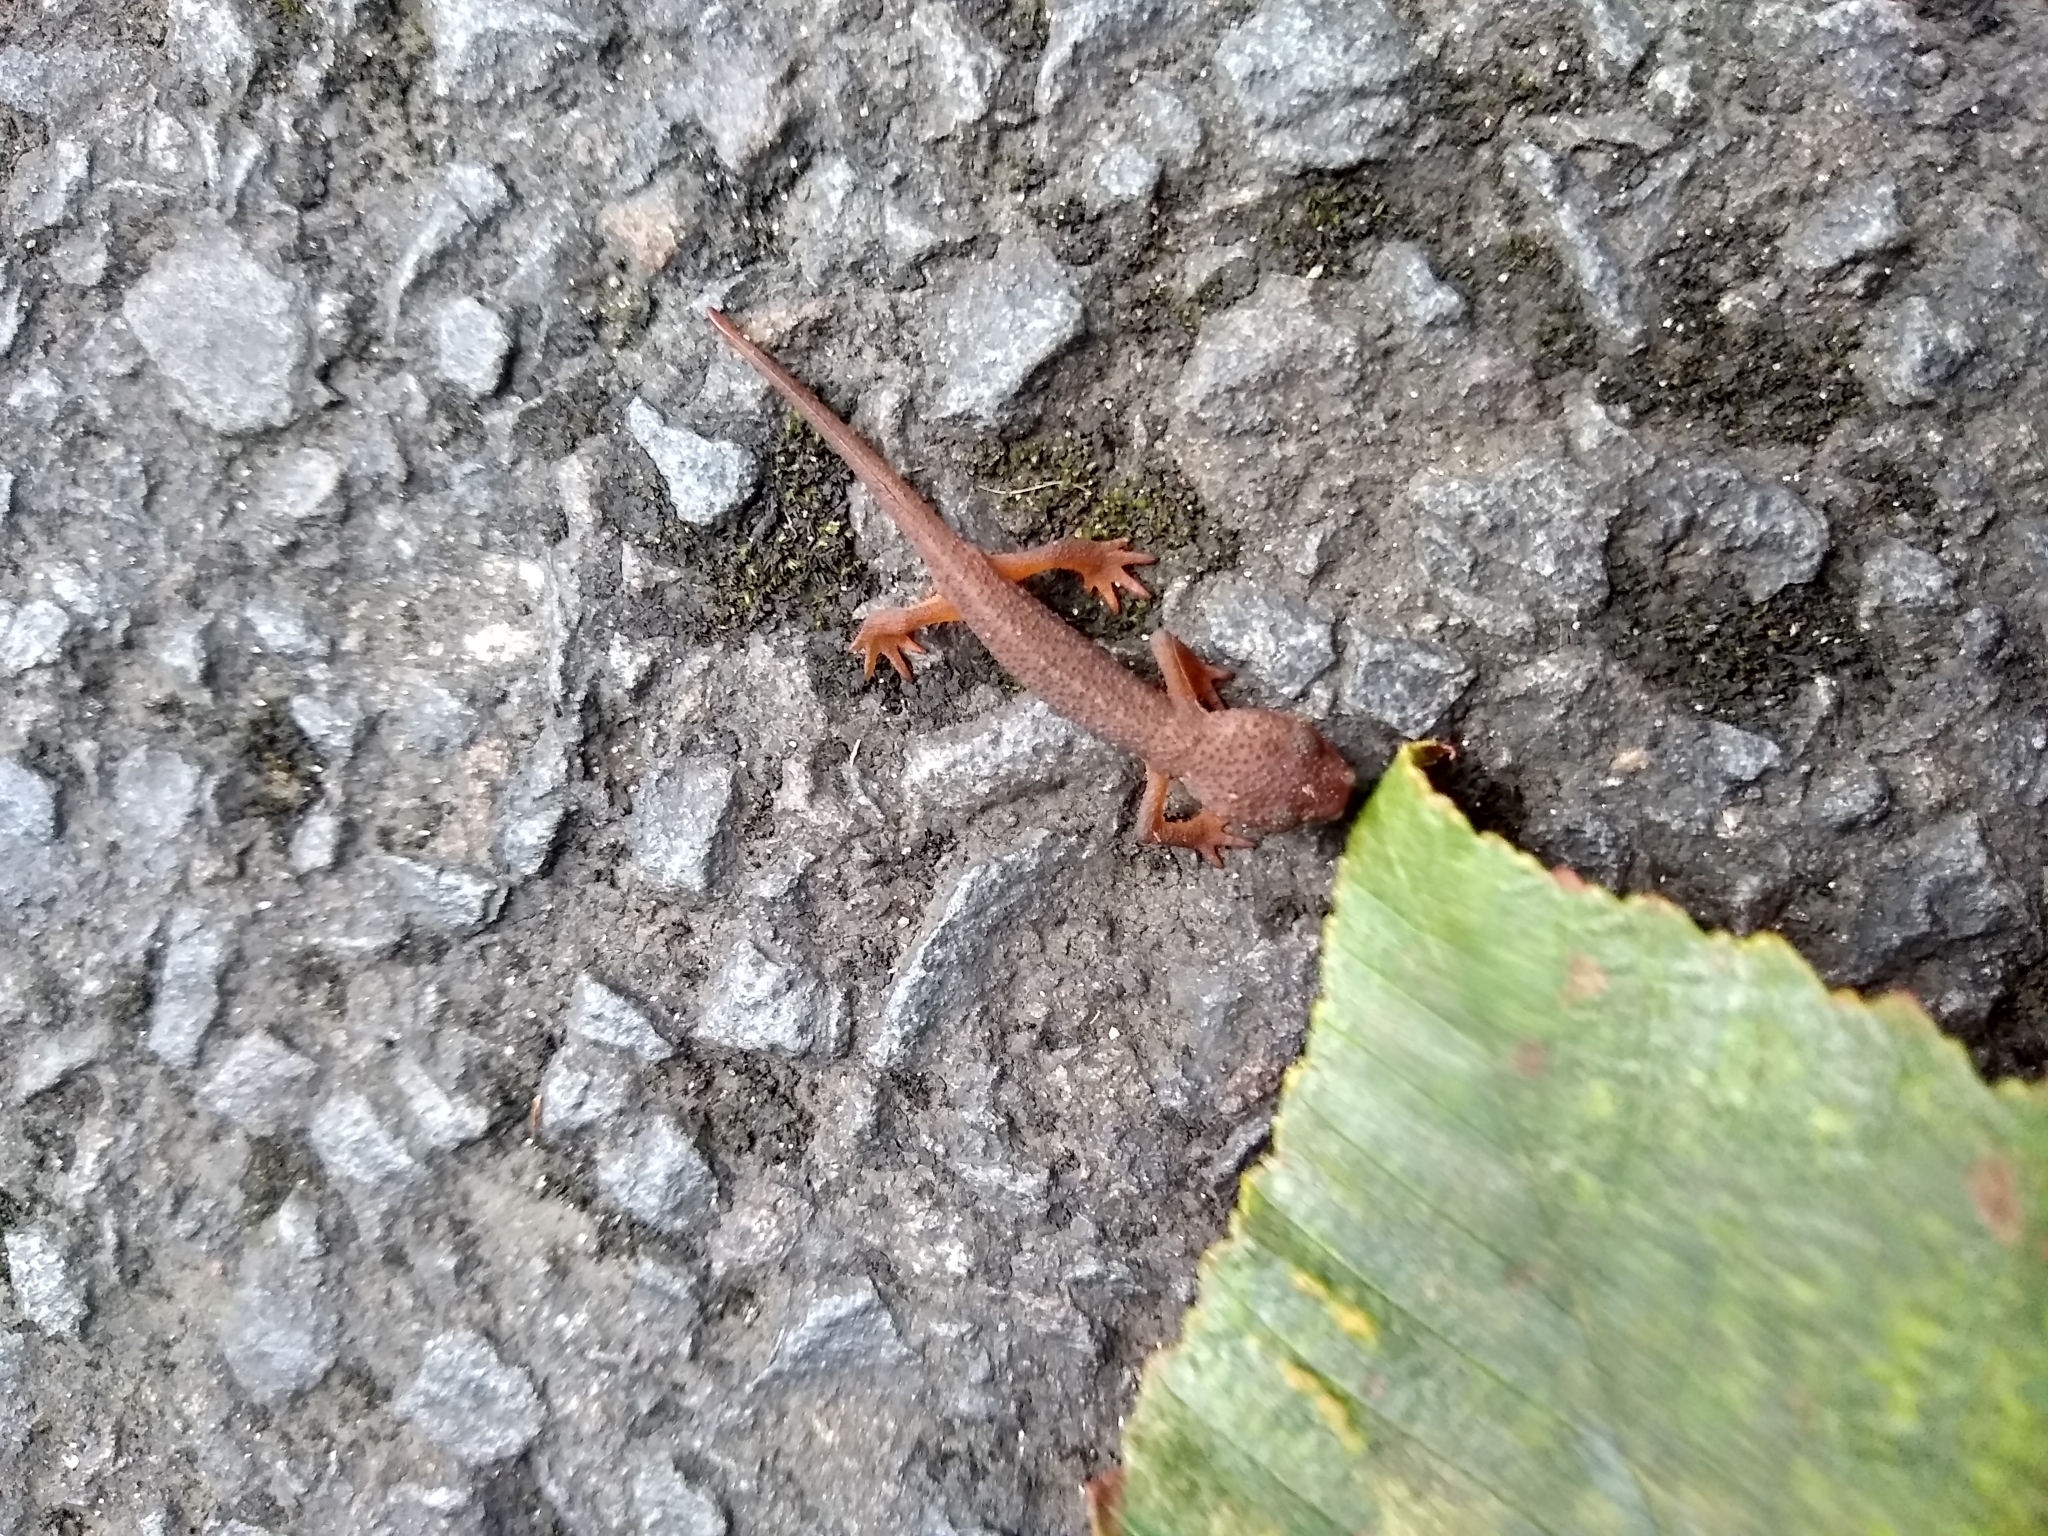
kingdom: Animalia
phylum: Chordata
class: Amphibia
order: Caudata
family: Salamandridae
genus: Taricha
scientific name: Taricha granulosa
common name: Roughskin newt
